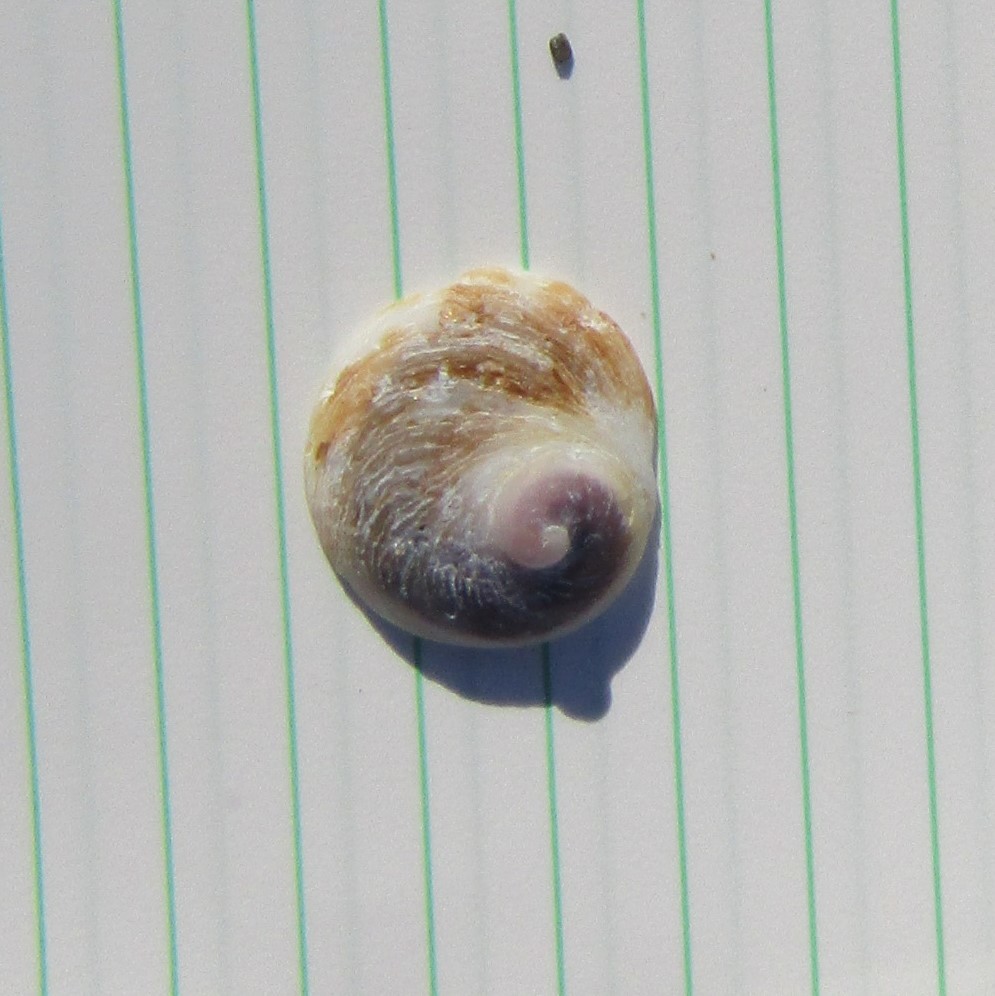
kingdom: Animalia
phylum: Mollusca
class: Gastropoda
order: Littorinimorpha
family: Calyptraeidae
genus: Sigapatella
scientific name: Sigapatella novaezelandiae
